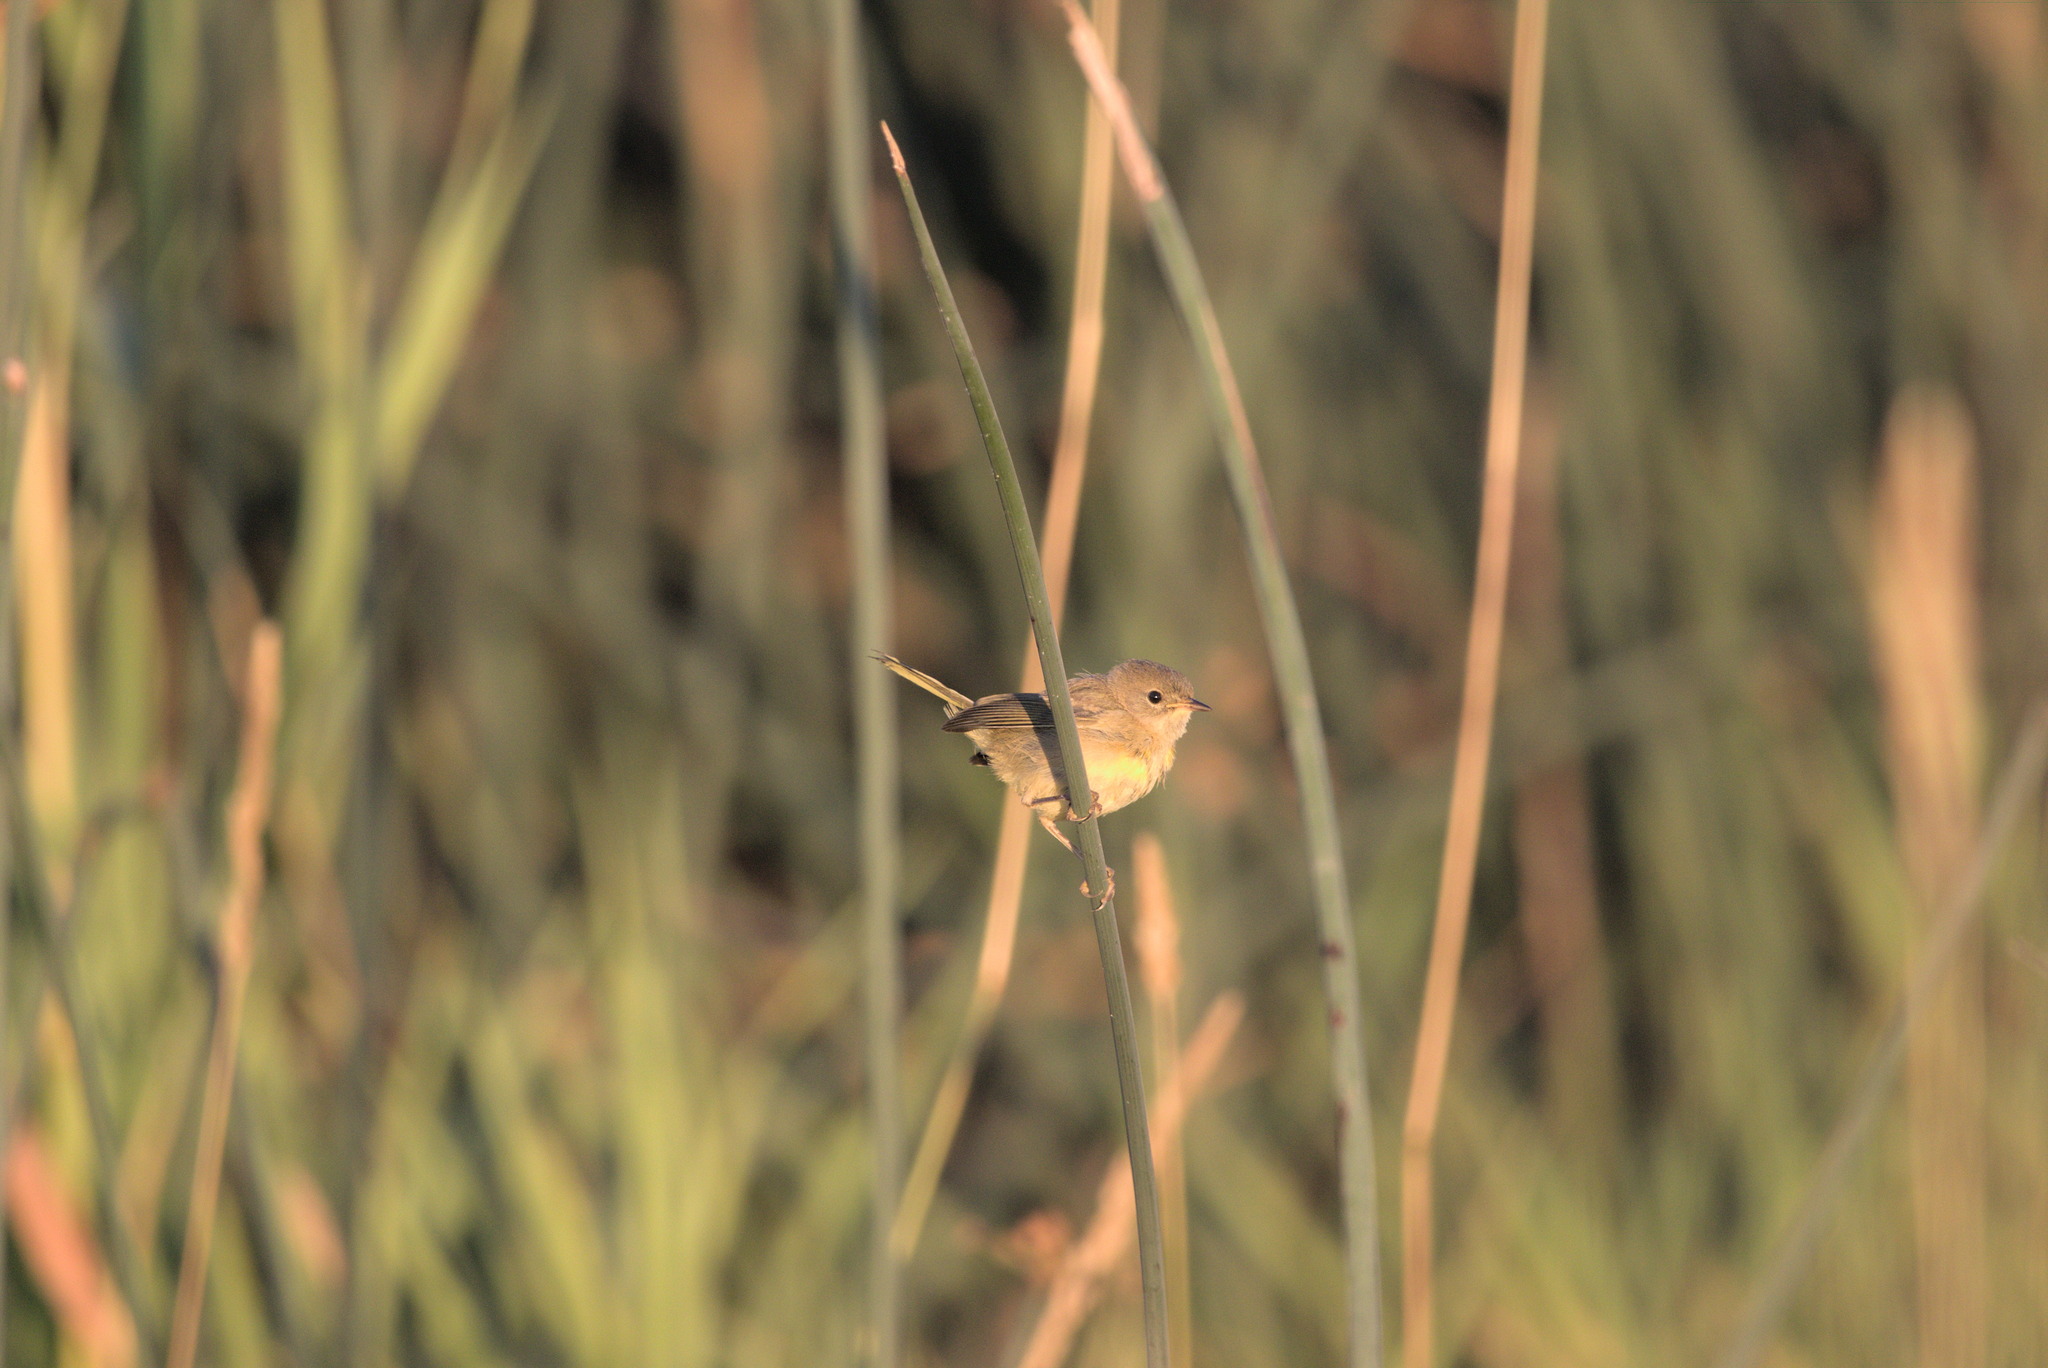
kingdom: Animalia
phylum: Chordata
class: Aves
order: Passeriformes
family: Parulidae
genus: Geothlypis
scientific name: Geothlypis trichas
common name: Common yellowthroat
